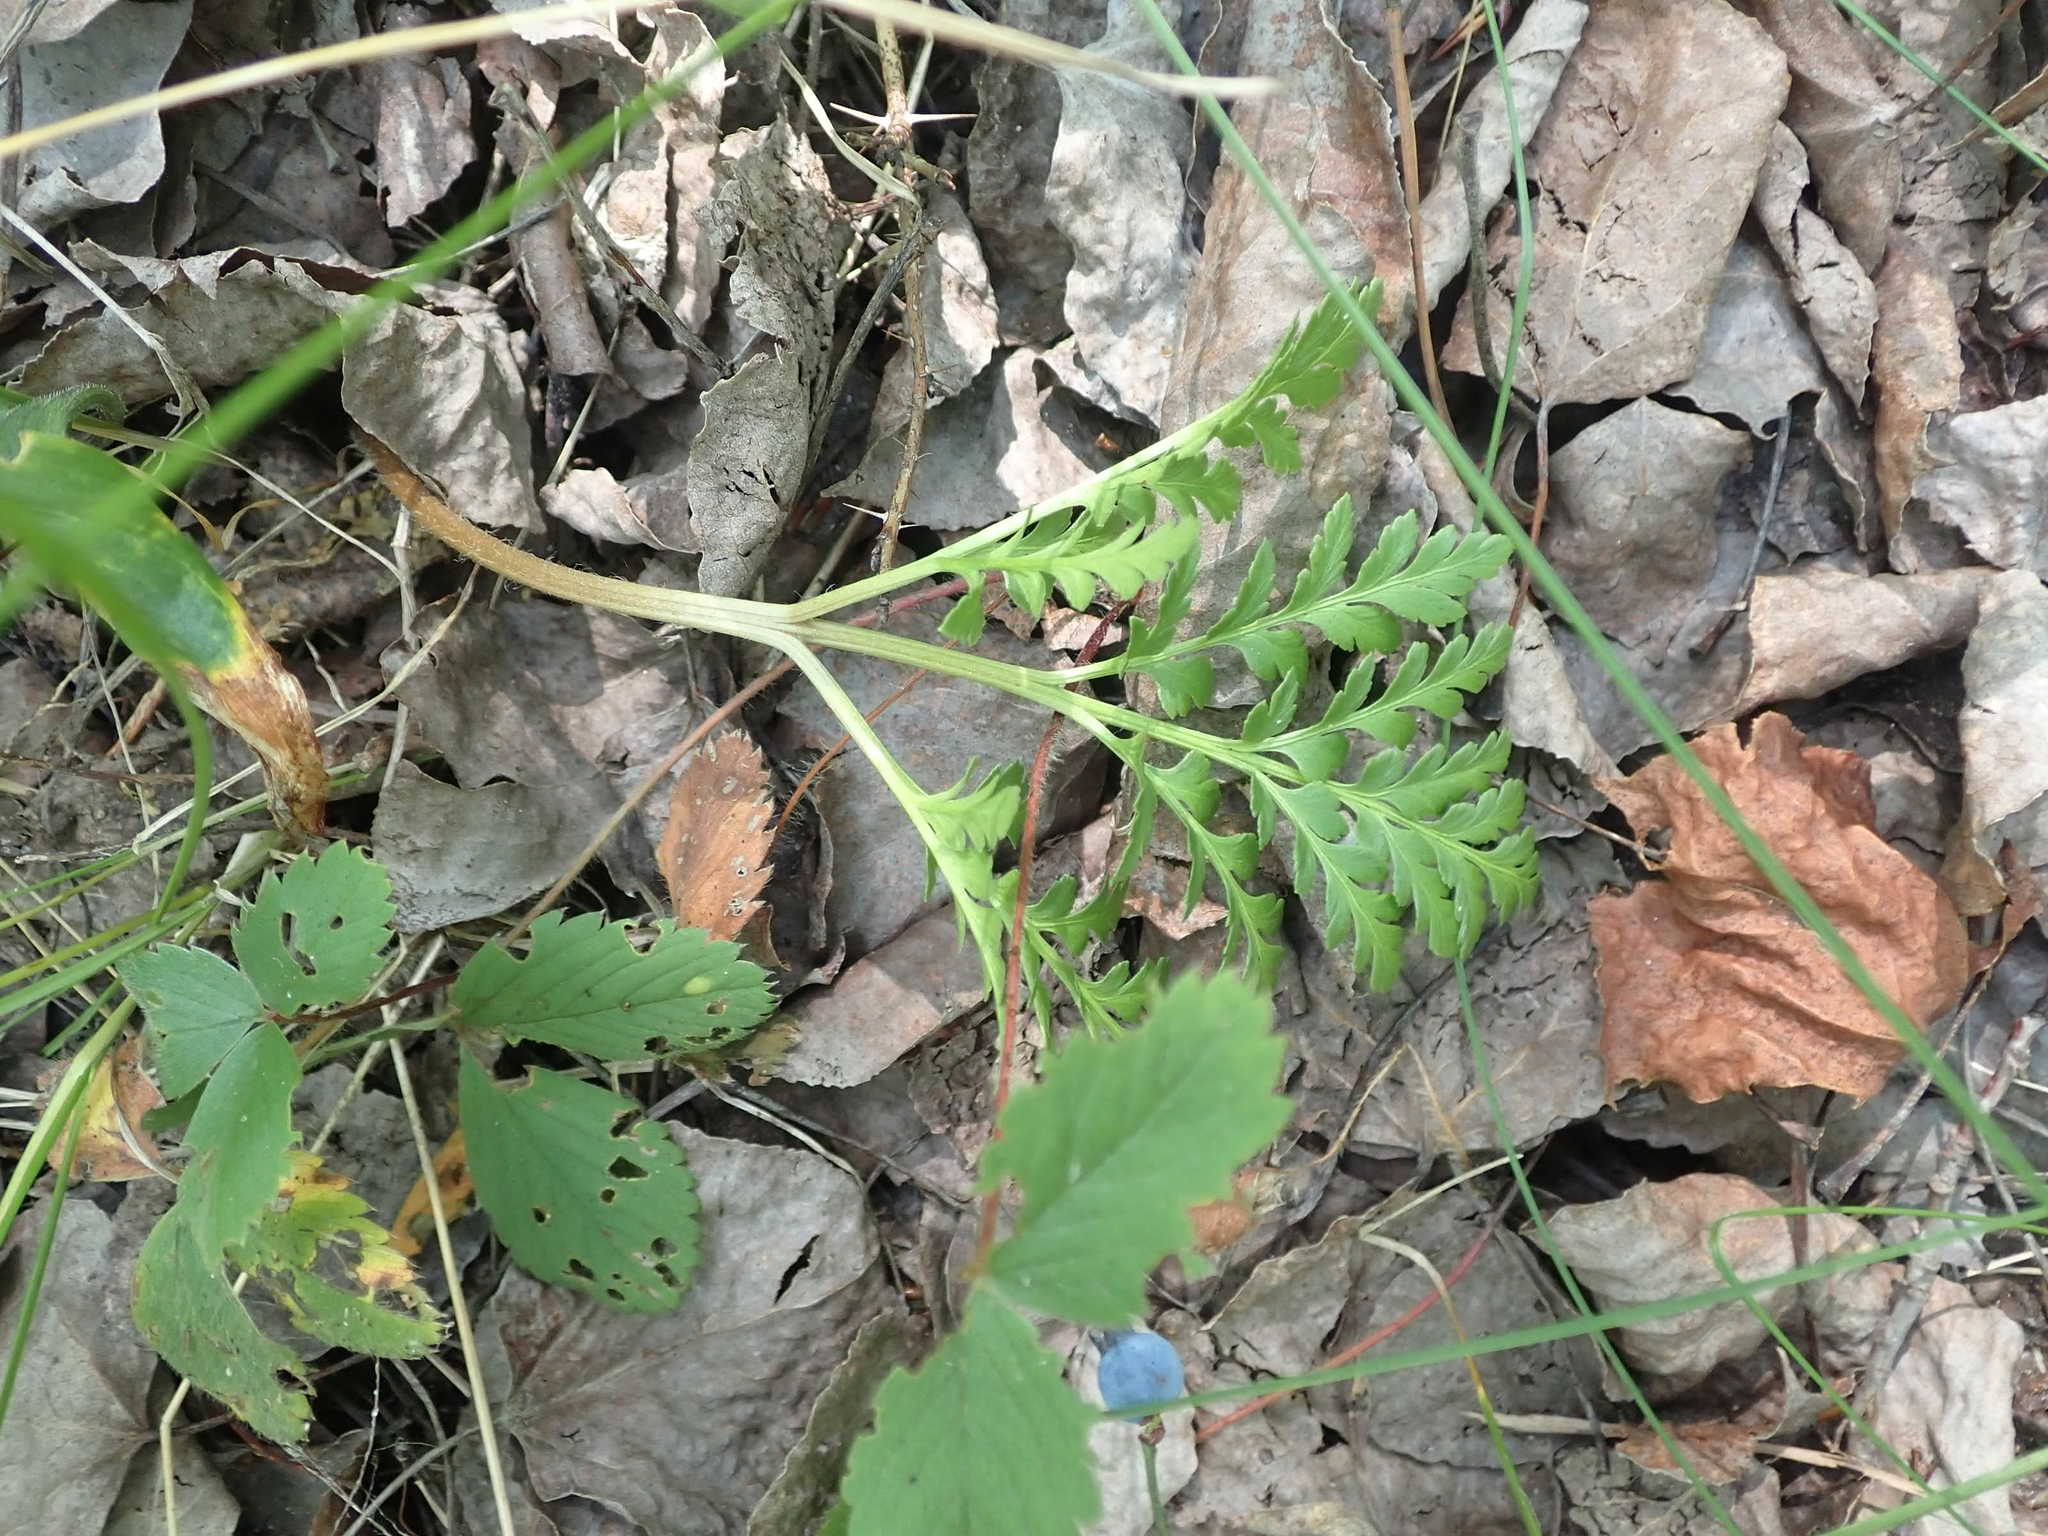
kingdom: Plantae
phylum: Tracheophyta
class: Polypodiopsida
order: Ophioglossales
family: Ophioglossaceae
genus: Sceptridium
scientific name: Sceptridium multifidum
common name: Leathery grape fern
